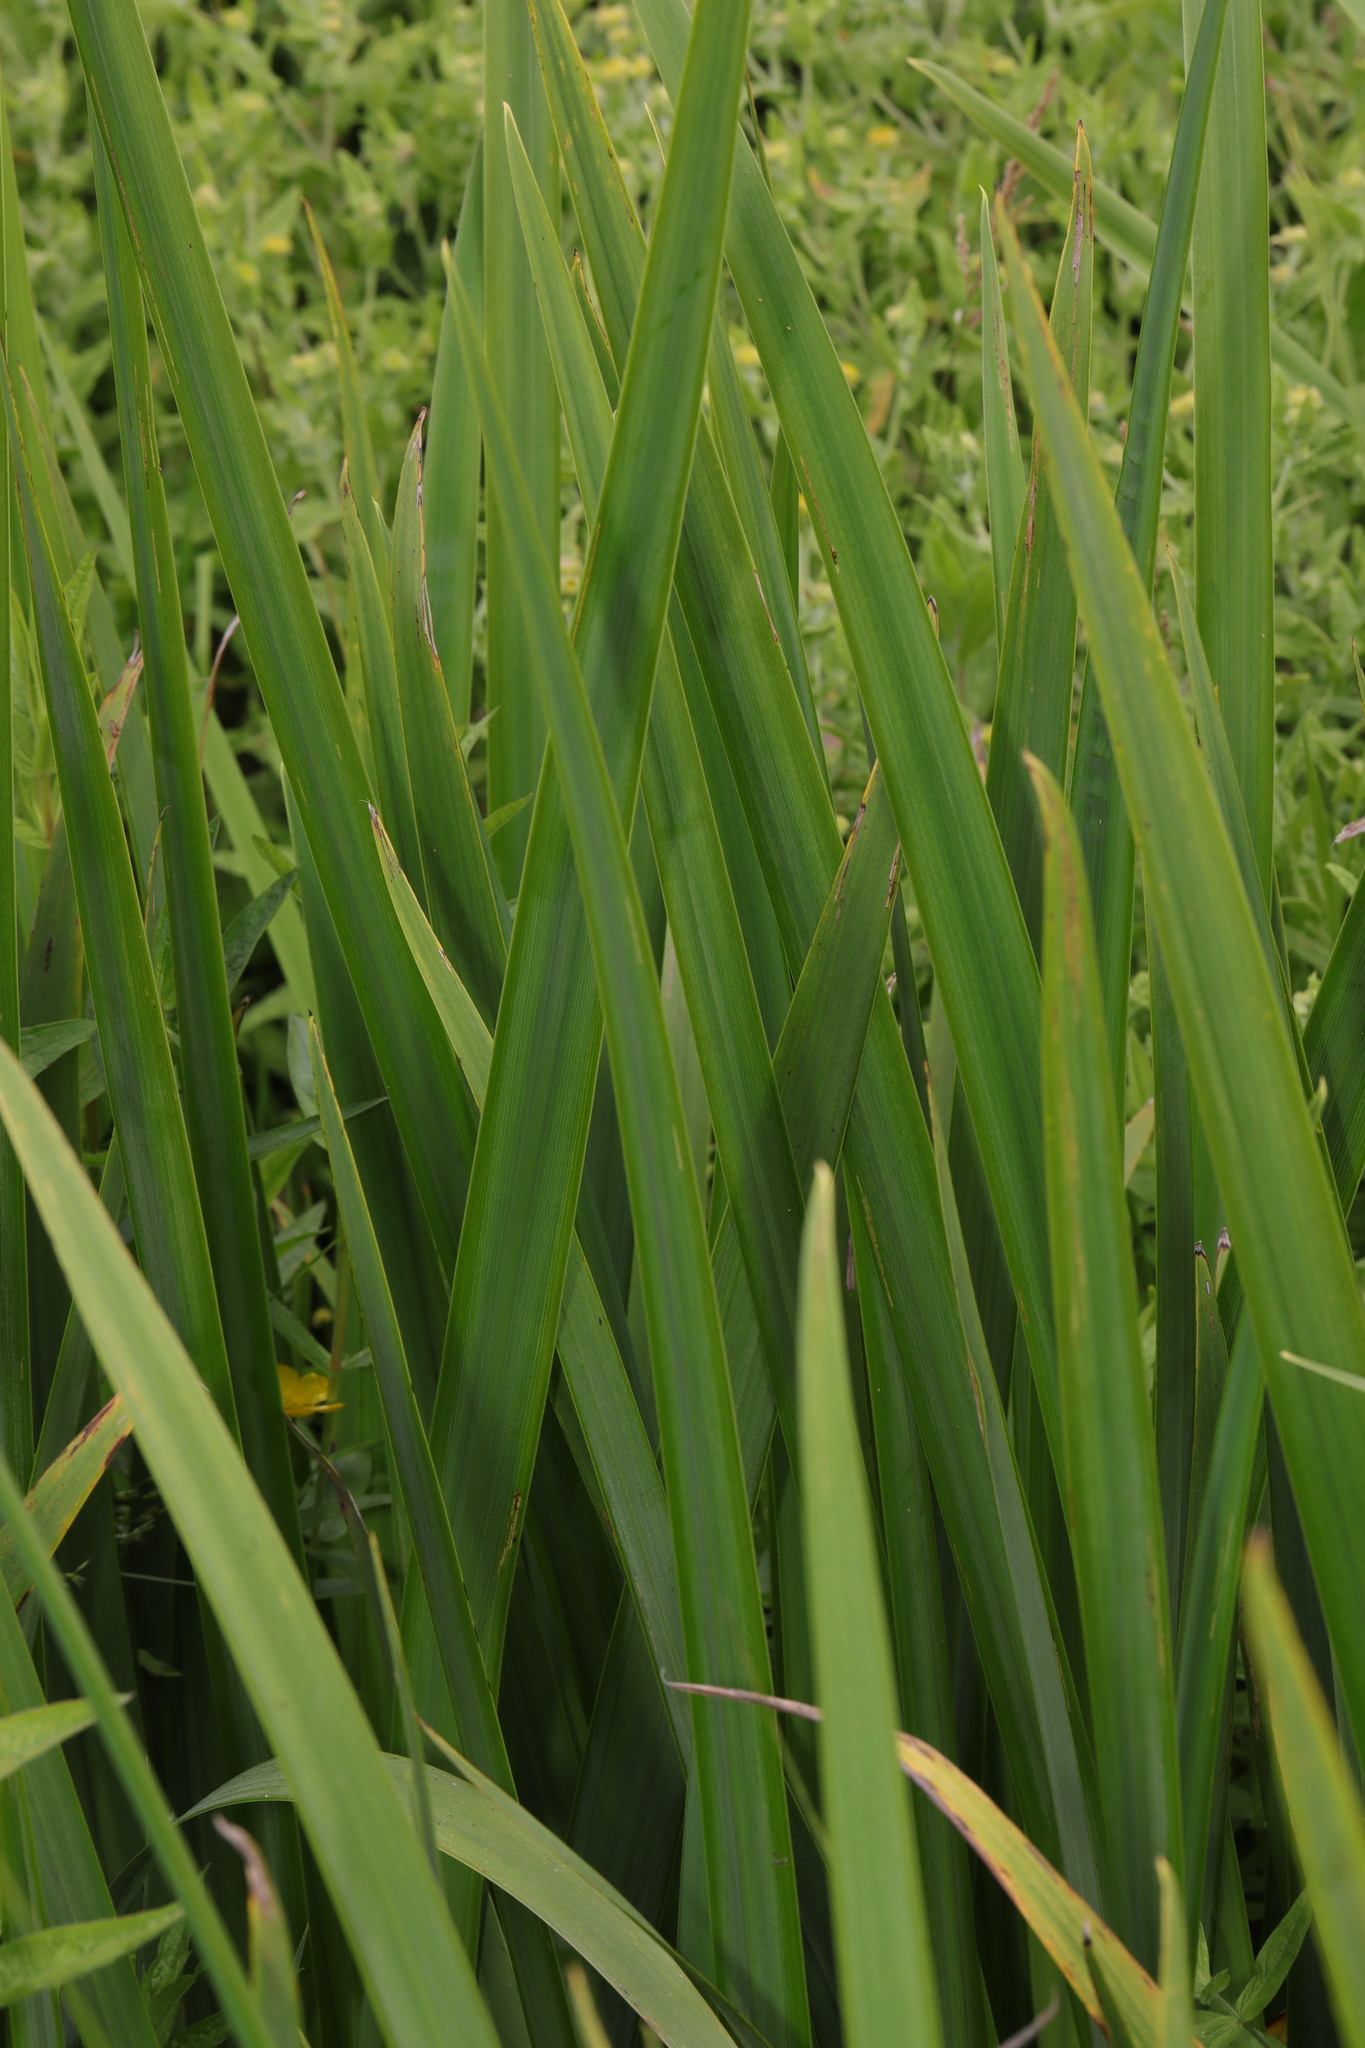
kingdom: Plantae
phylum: Tracheophyta
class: Liliopsida
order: Asparagales
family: Iridaceae
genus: Iris
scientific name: Iris pseudacorus
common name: Yellow flag
